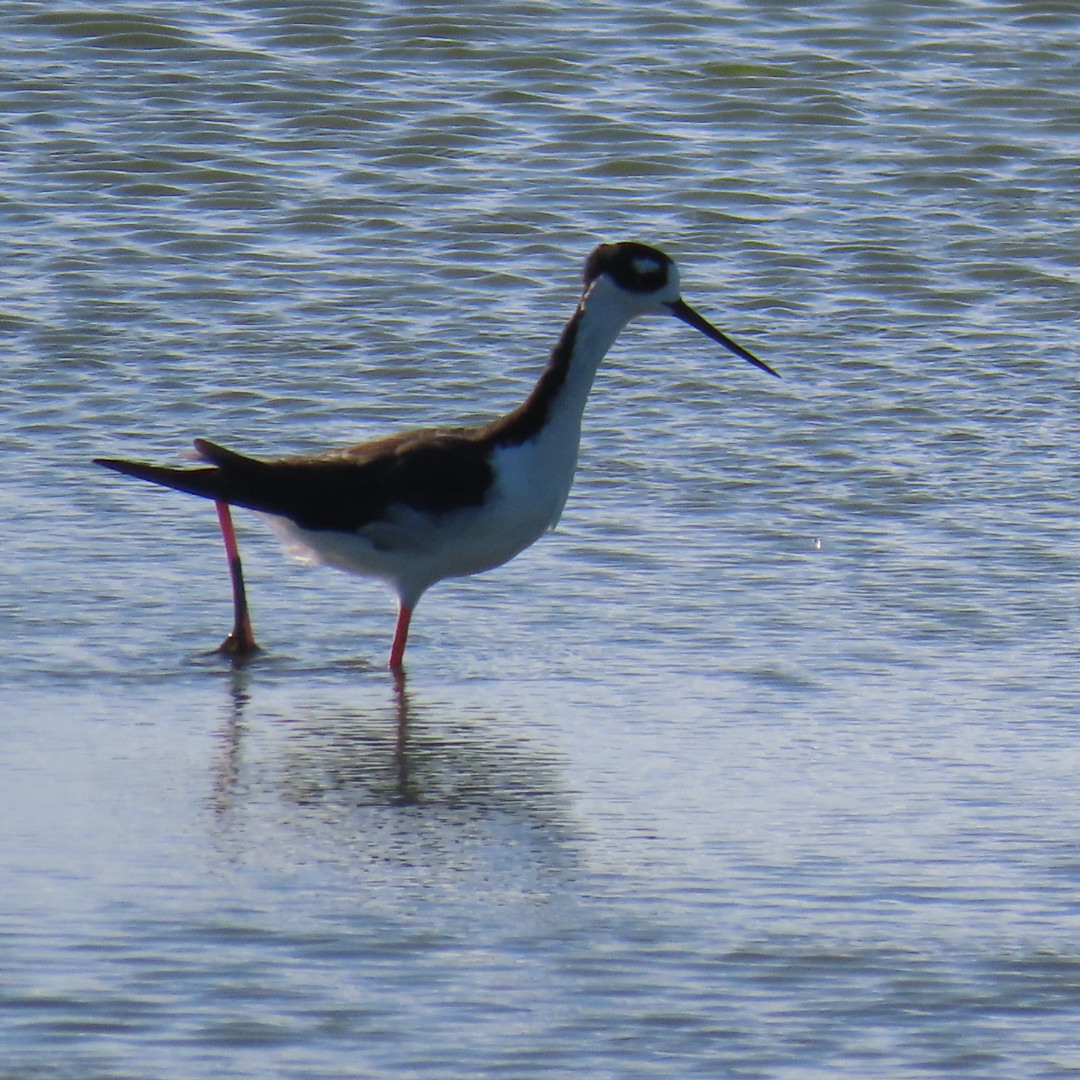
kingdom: Animalia
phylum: Chordata
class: Aves
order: Charadriiformes
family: Recurvirostridae
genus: Himantopus
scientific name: Himantopus mexicanus
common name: Black-necked stilt
